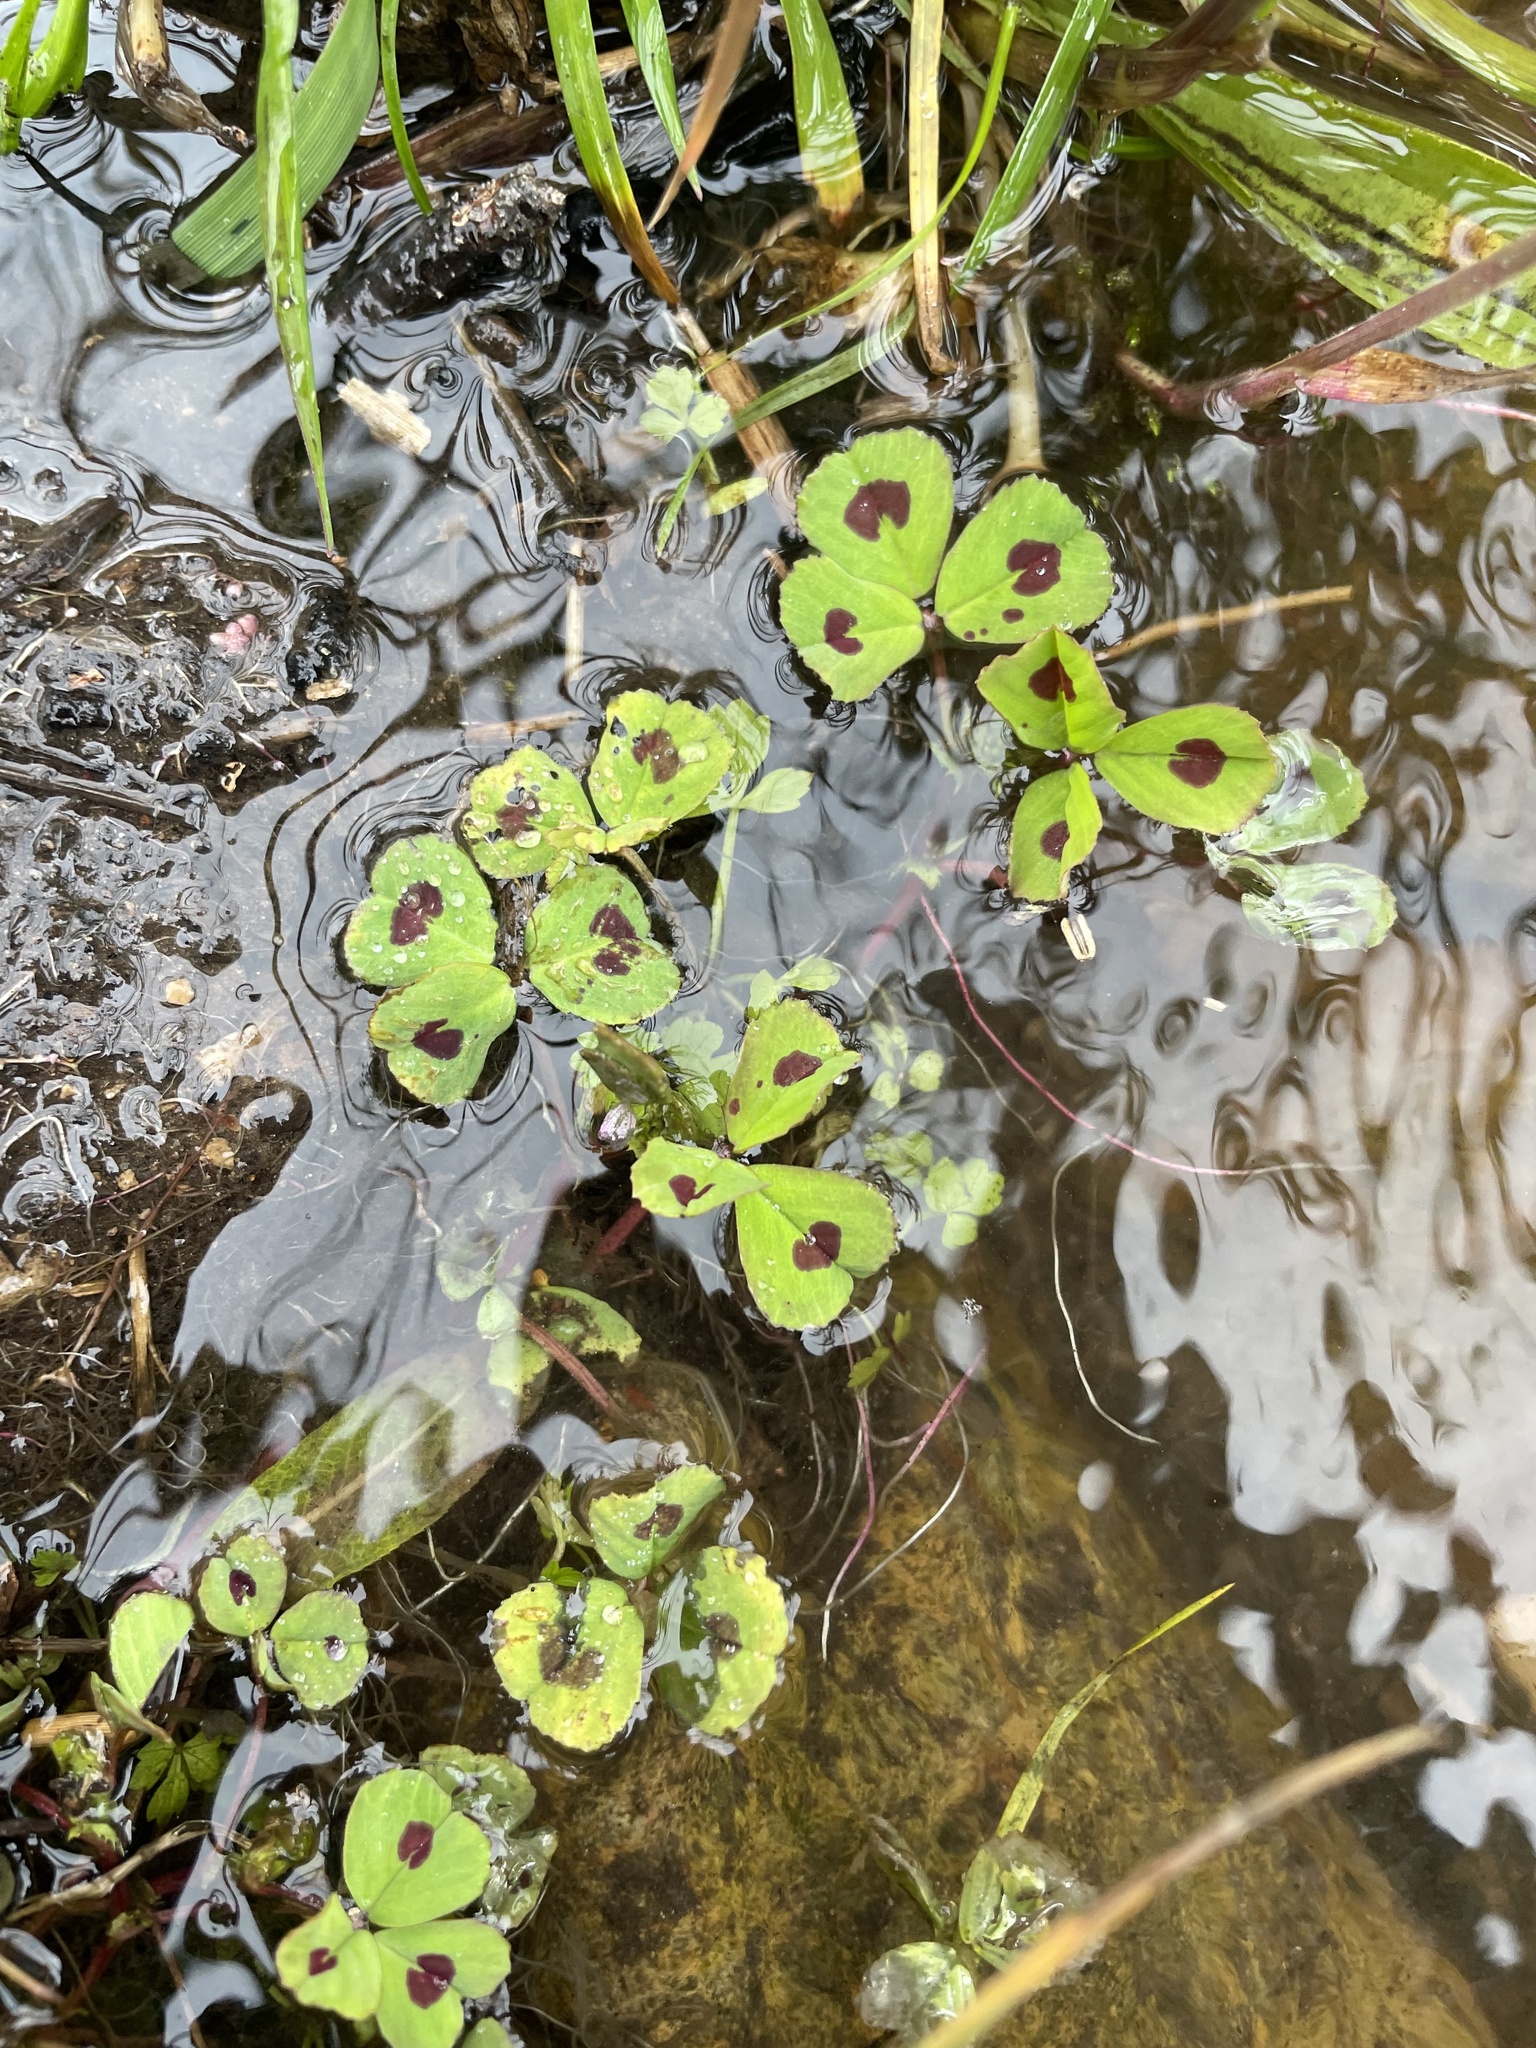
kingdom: Plantae
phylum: Tracheophyta
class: Magnoliopsida
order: Fabales
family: Fabaceae
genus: Medicago
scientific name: Medicago arabica
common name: Spotted medick
